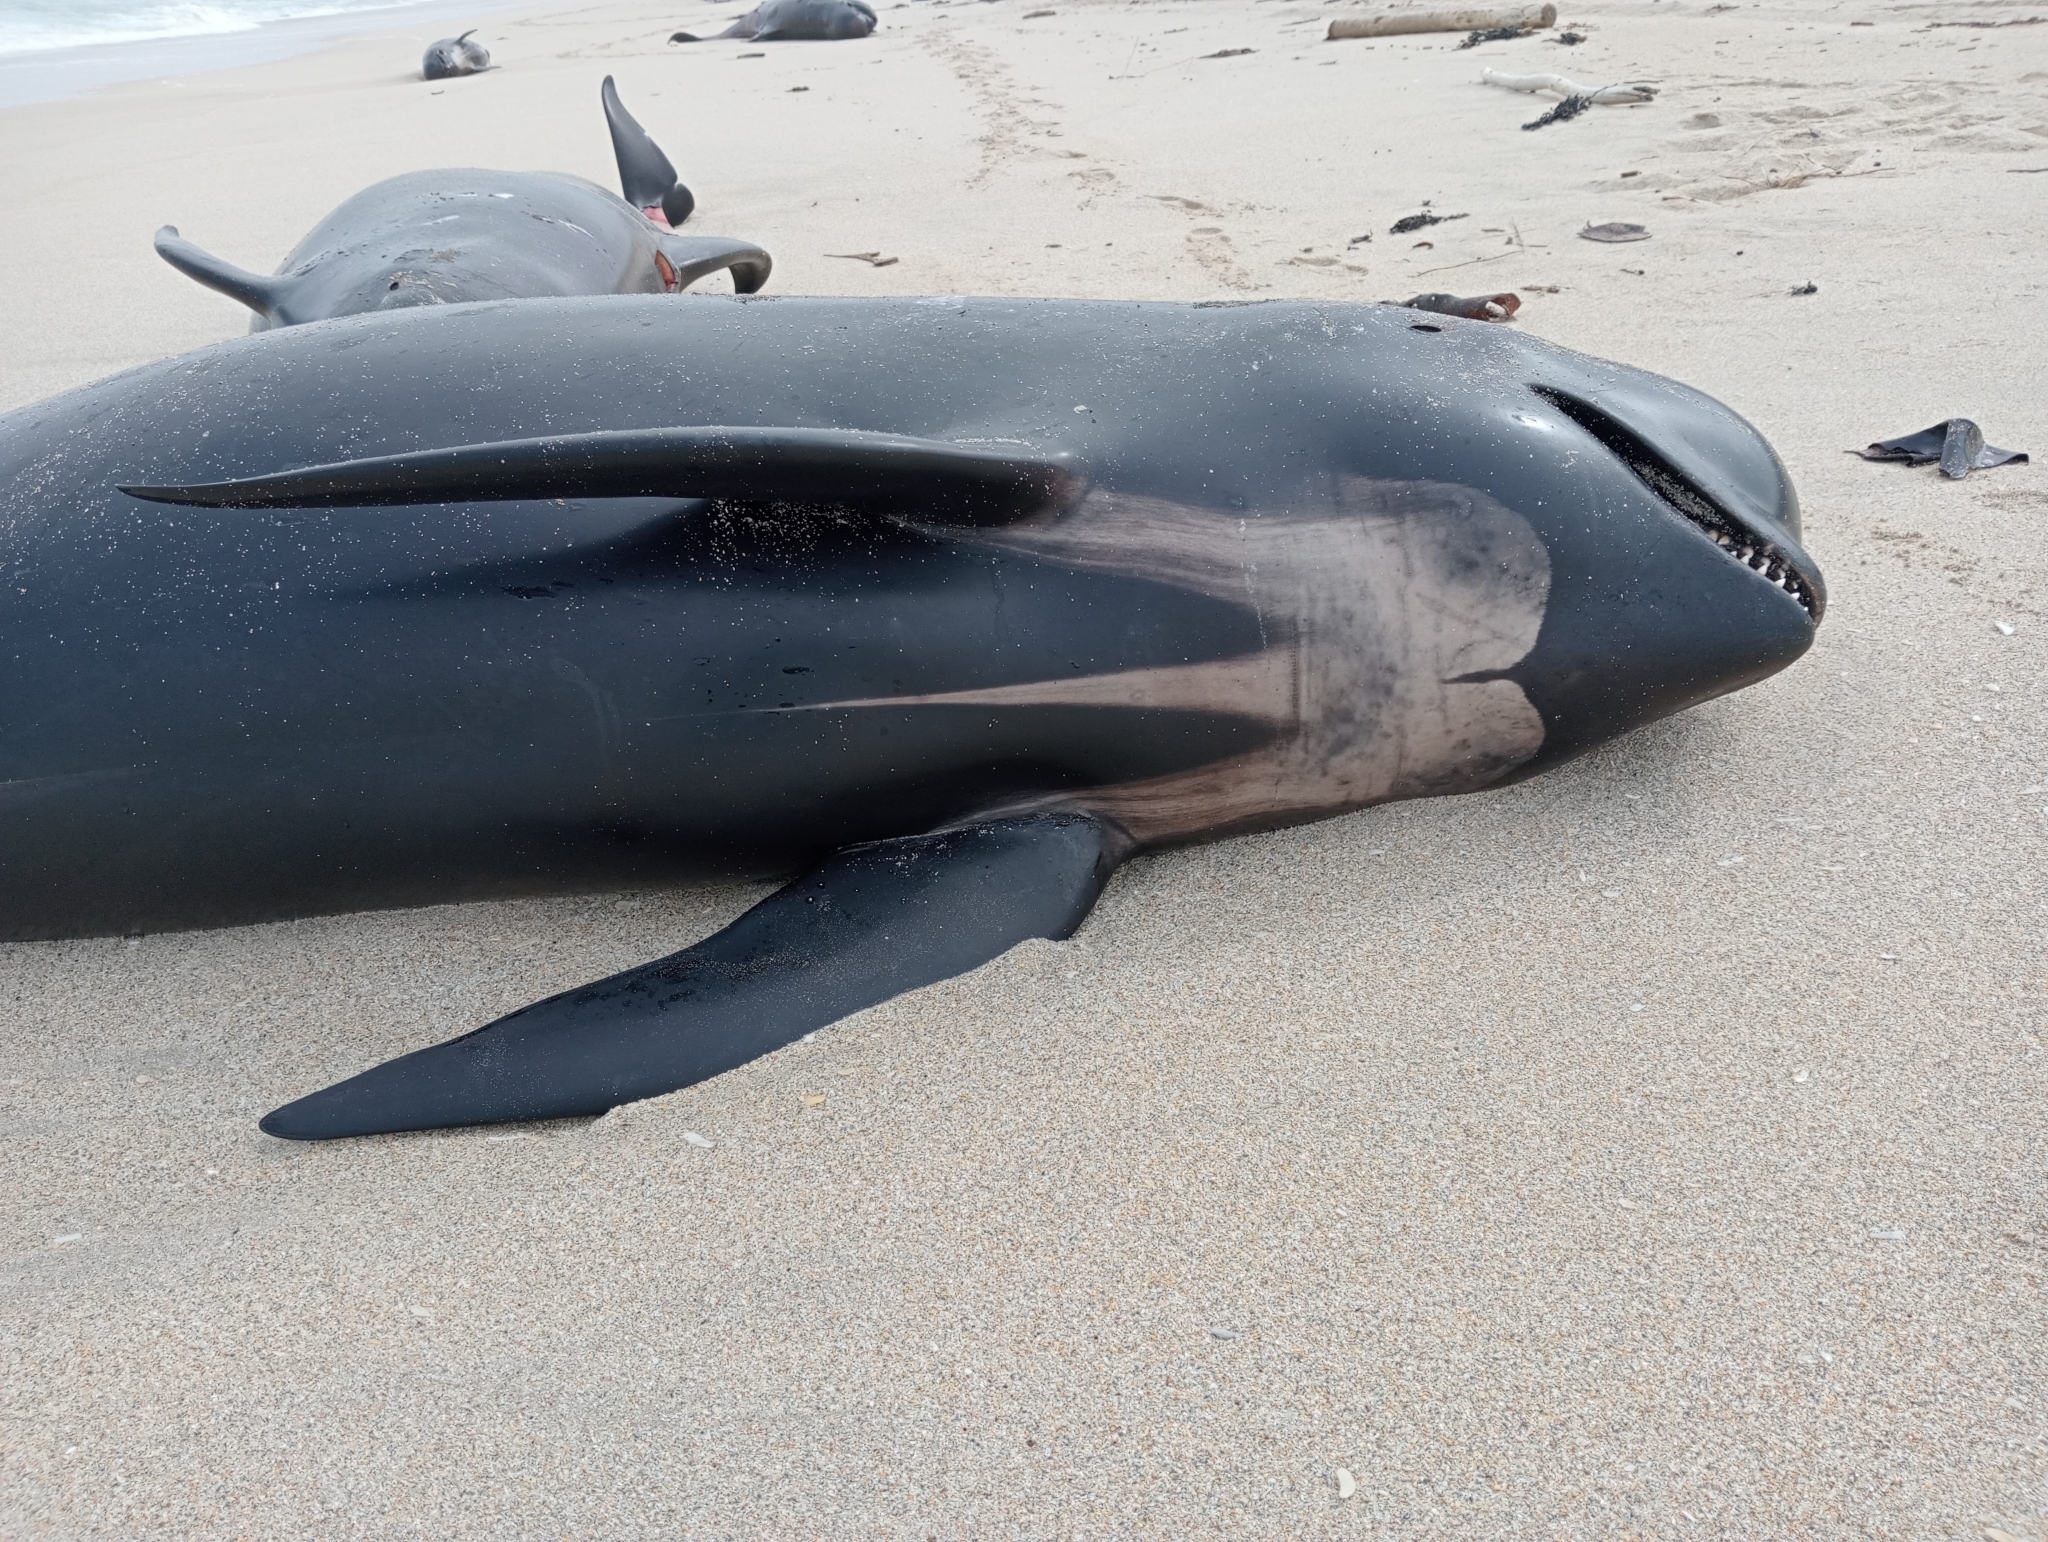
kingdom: Animalia
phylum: Chordata
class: Mammalia
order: Cetacea
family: Delphinidae
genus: Globicephala
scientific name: Globicephala melas
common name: Long-finned pilot whale
